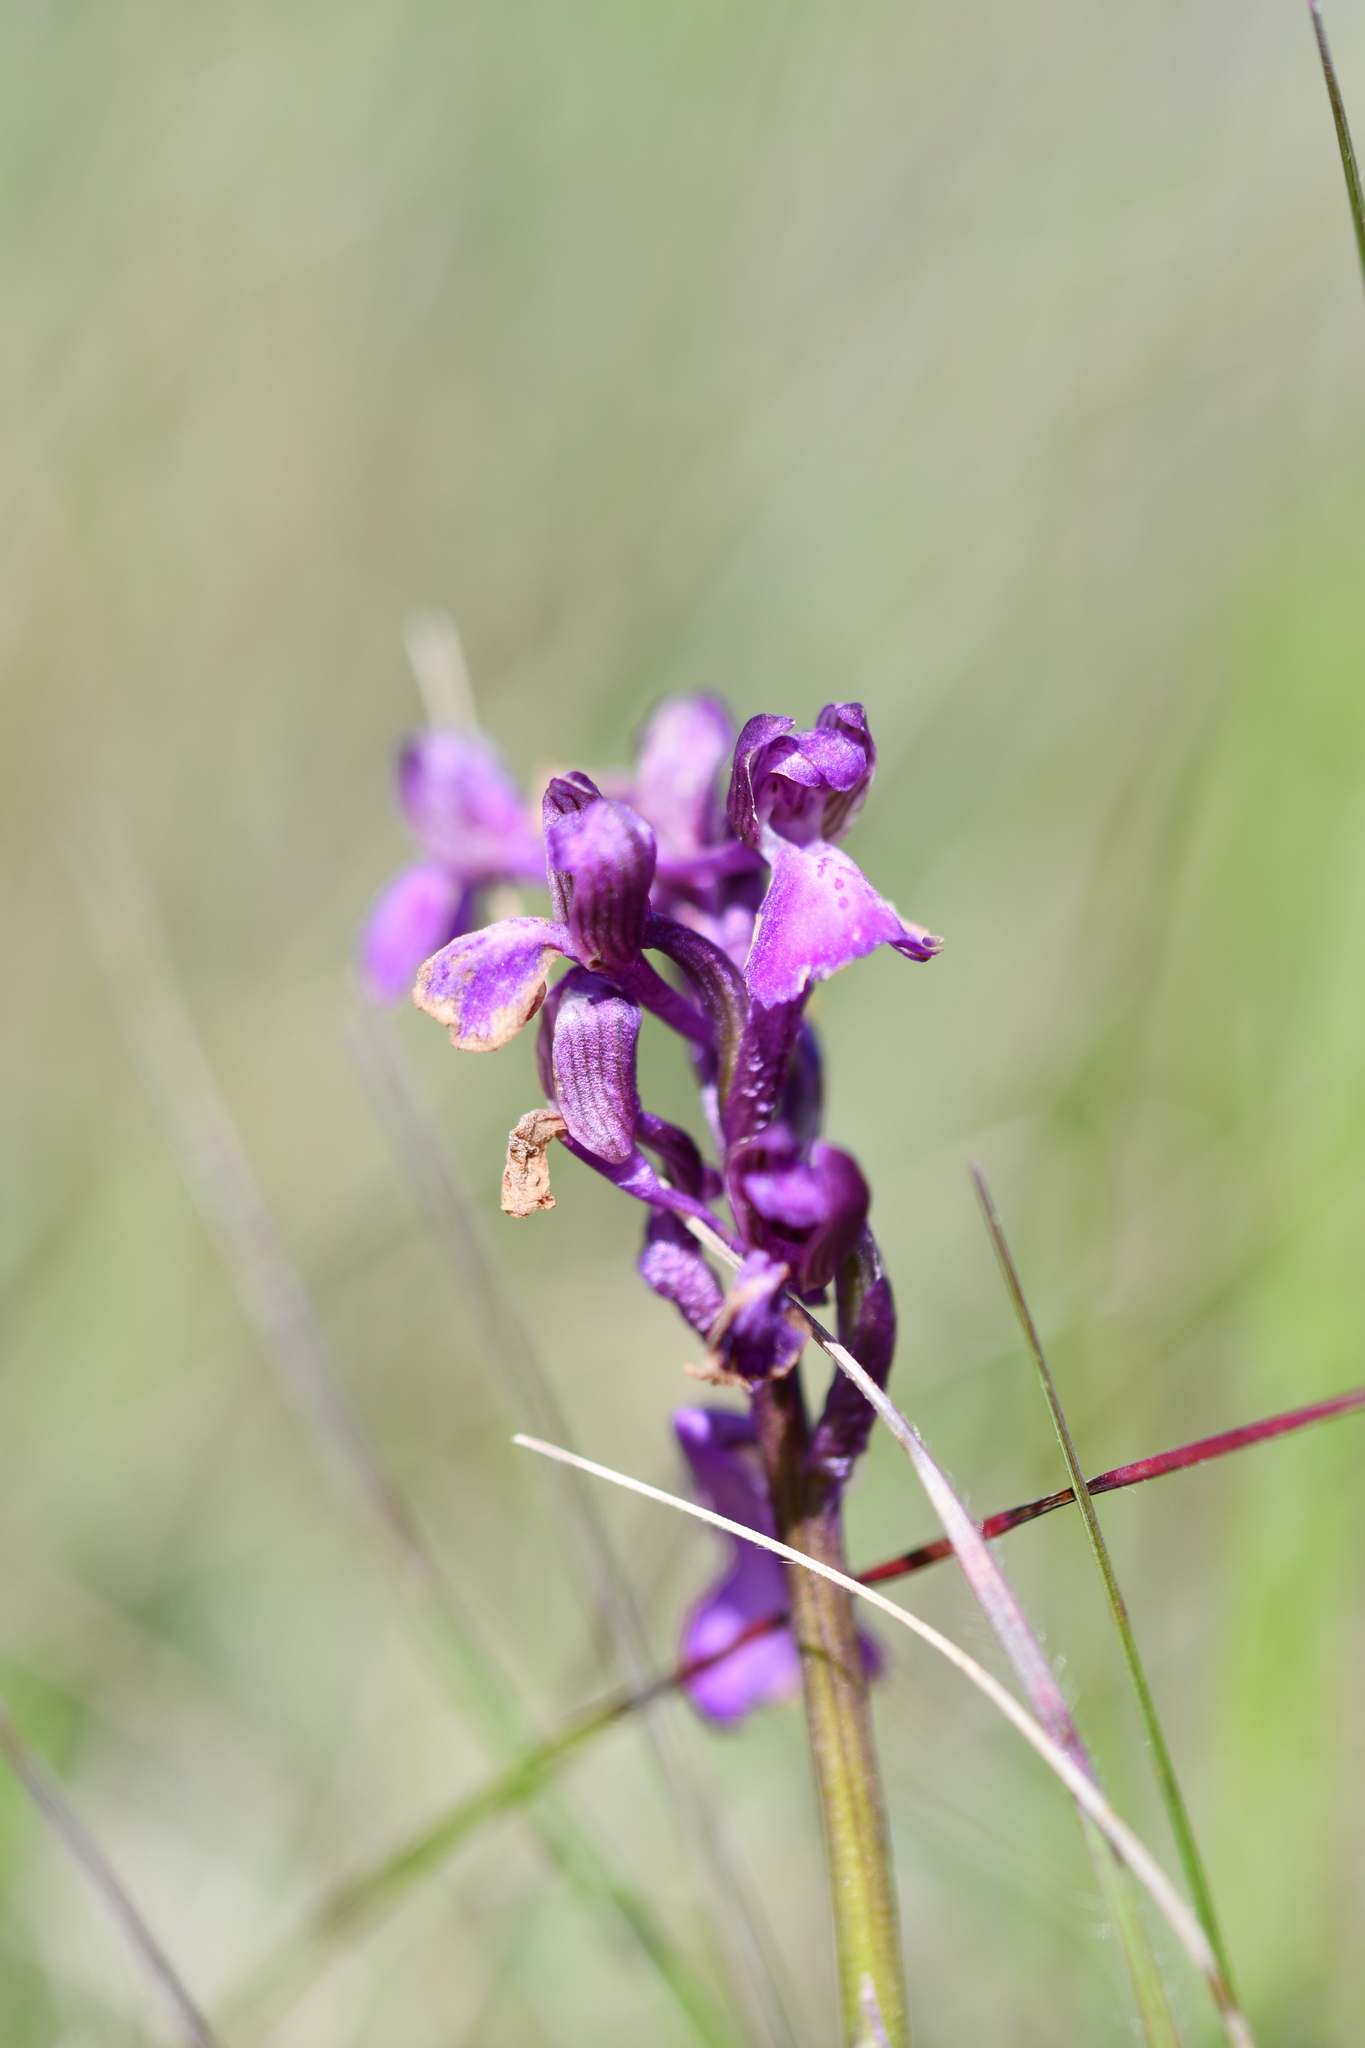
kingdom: Plantae
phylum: Tracheophyta
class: Liliopsida
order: Asparagales
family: Orchidaceae
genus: Anacamptis
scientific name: Anacamptis morio
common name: Green-winged orchid
